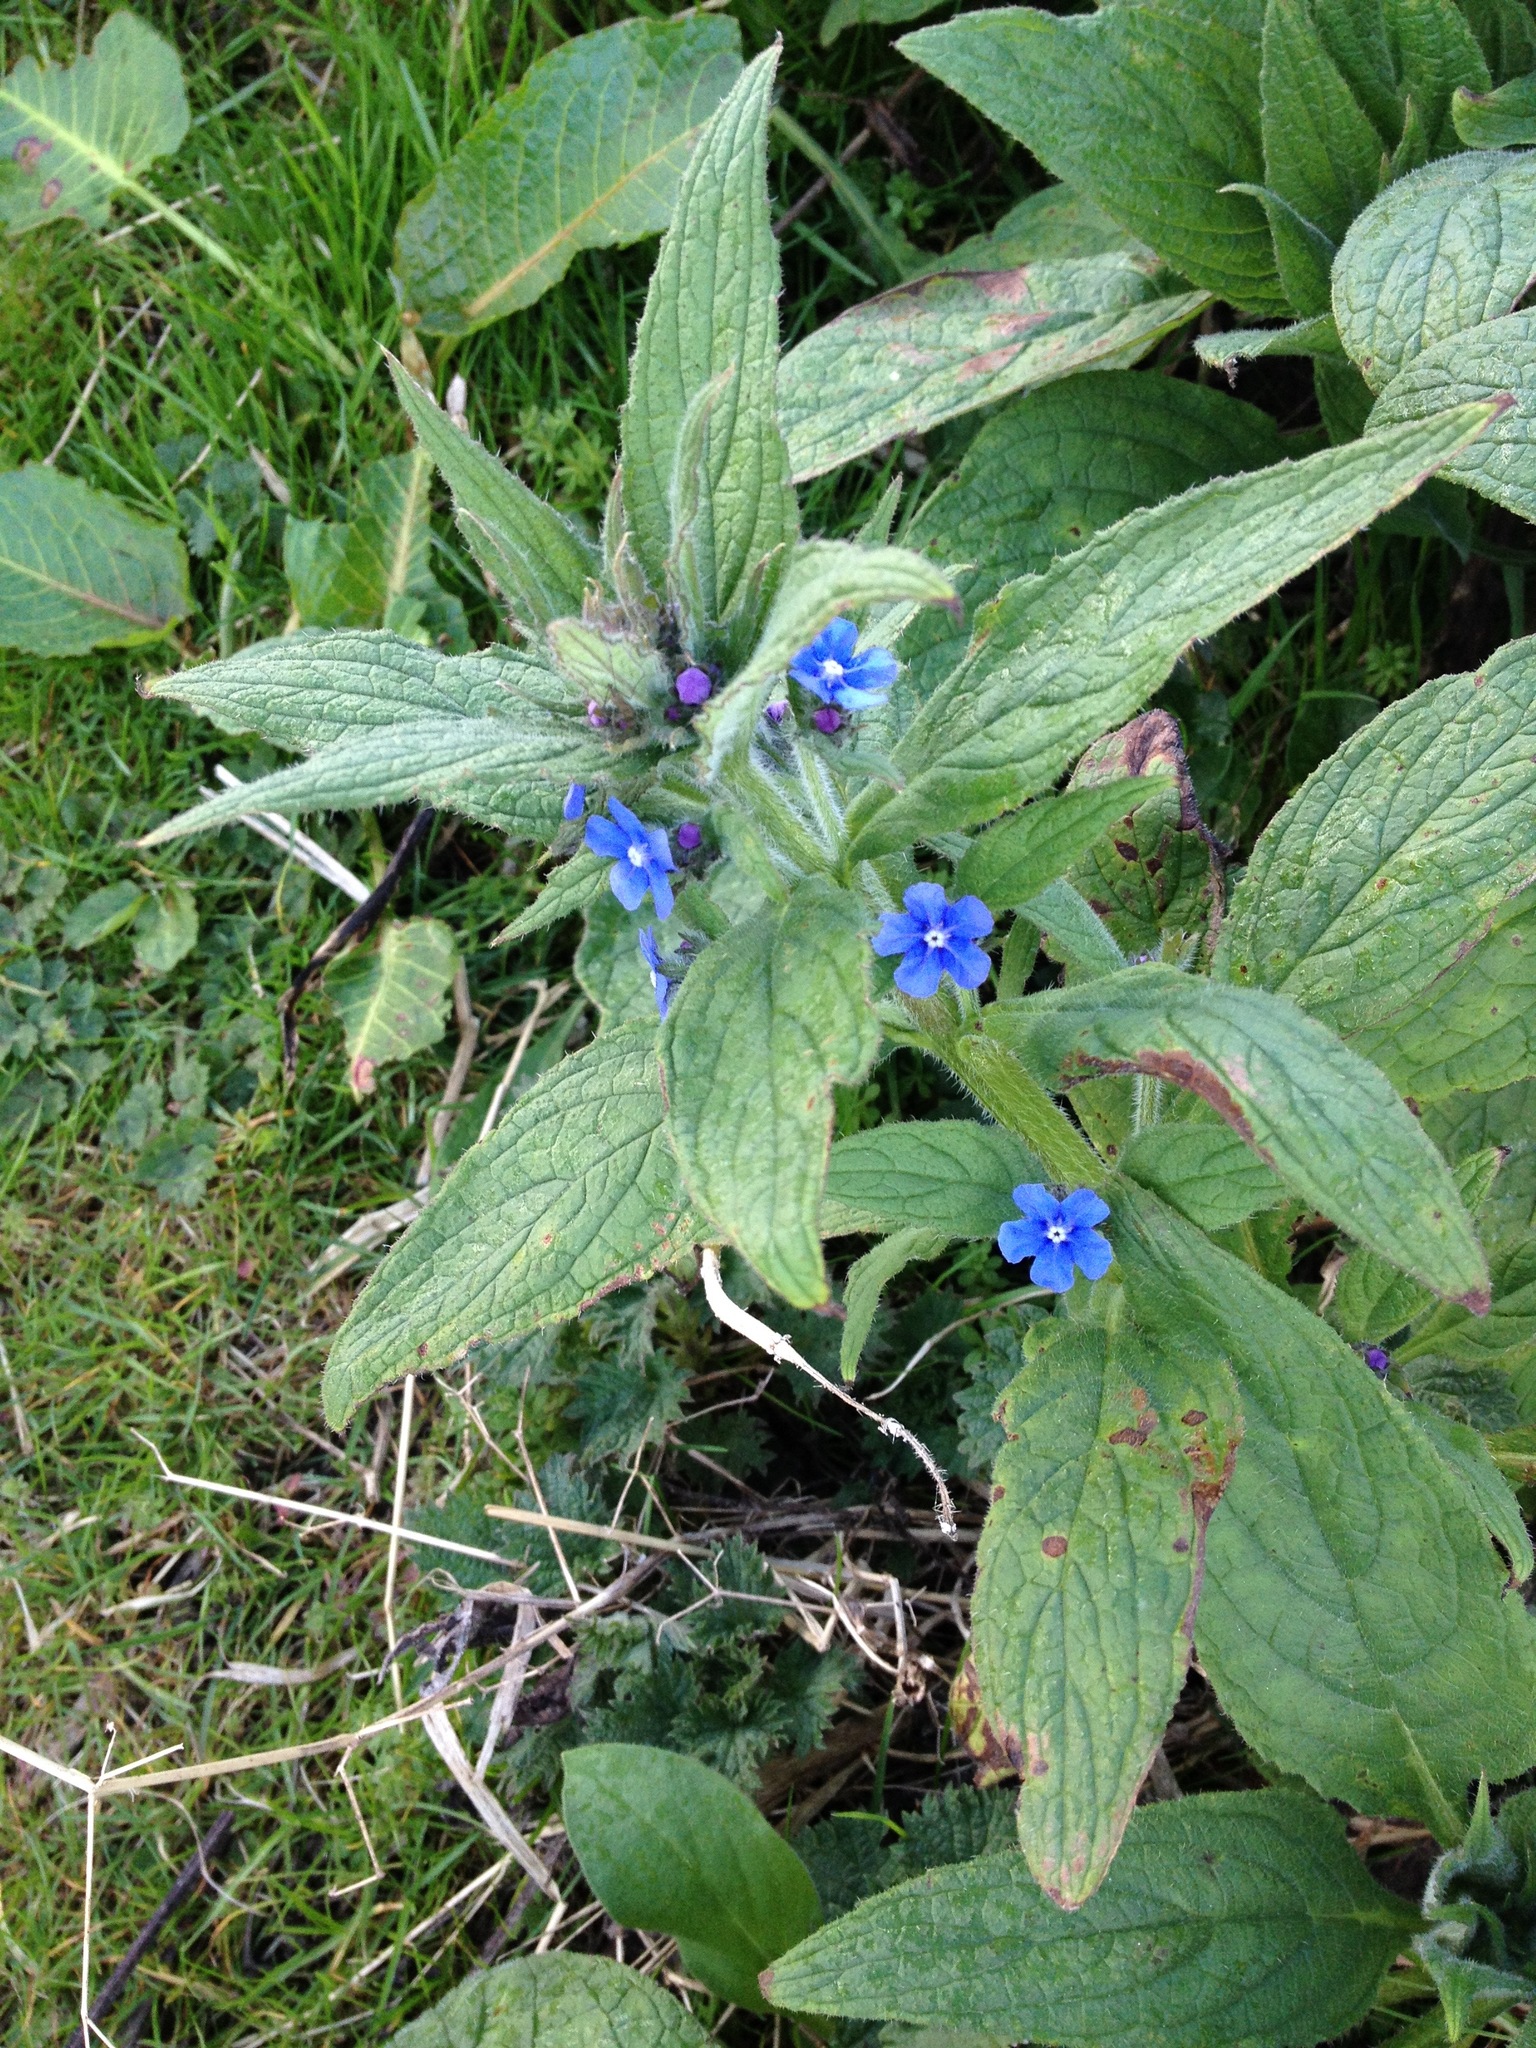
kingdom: Plantae
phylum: Tracheophyta
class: Magnoliopsida
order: Boraginales
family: Boraginaceae
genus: Pentaglottis
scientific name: Pentaglottis sempervirens
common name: Green alkanet
